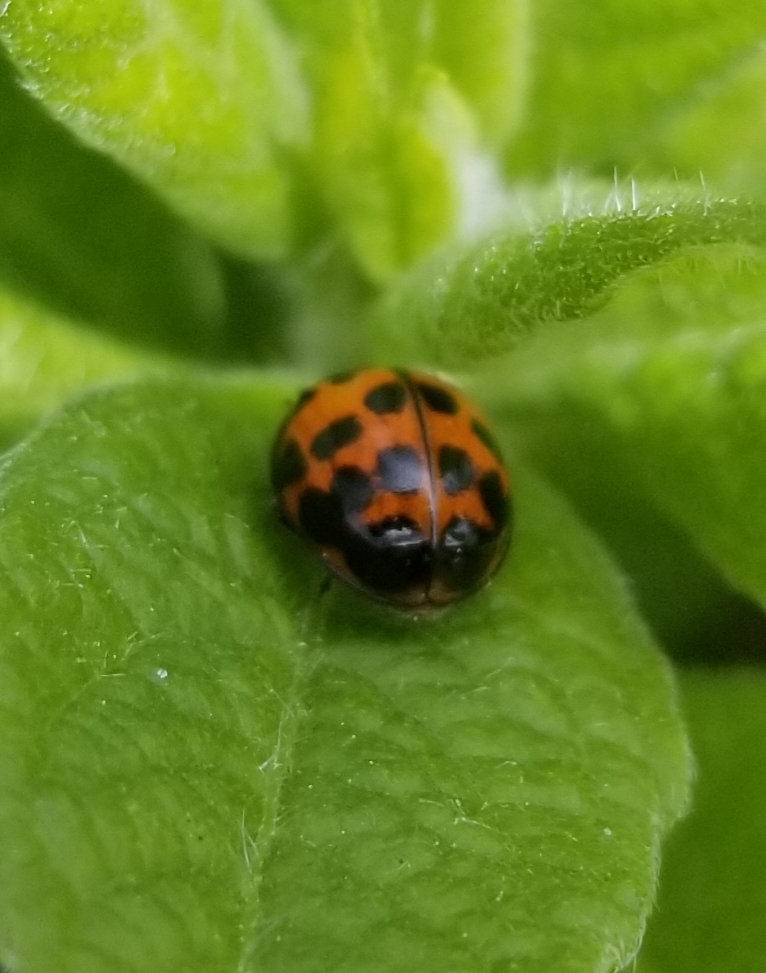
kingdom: Animalia
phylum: Arthropoda
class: Insecta
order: Coleoptera
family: Coccinellidae
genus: Harmonia
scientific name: Harmonia axyridis
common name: Harlequin ladybird
